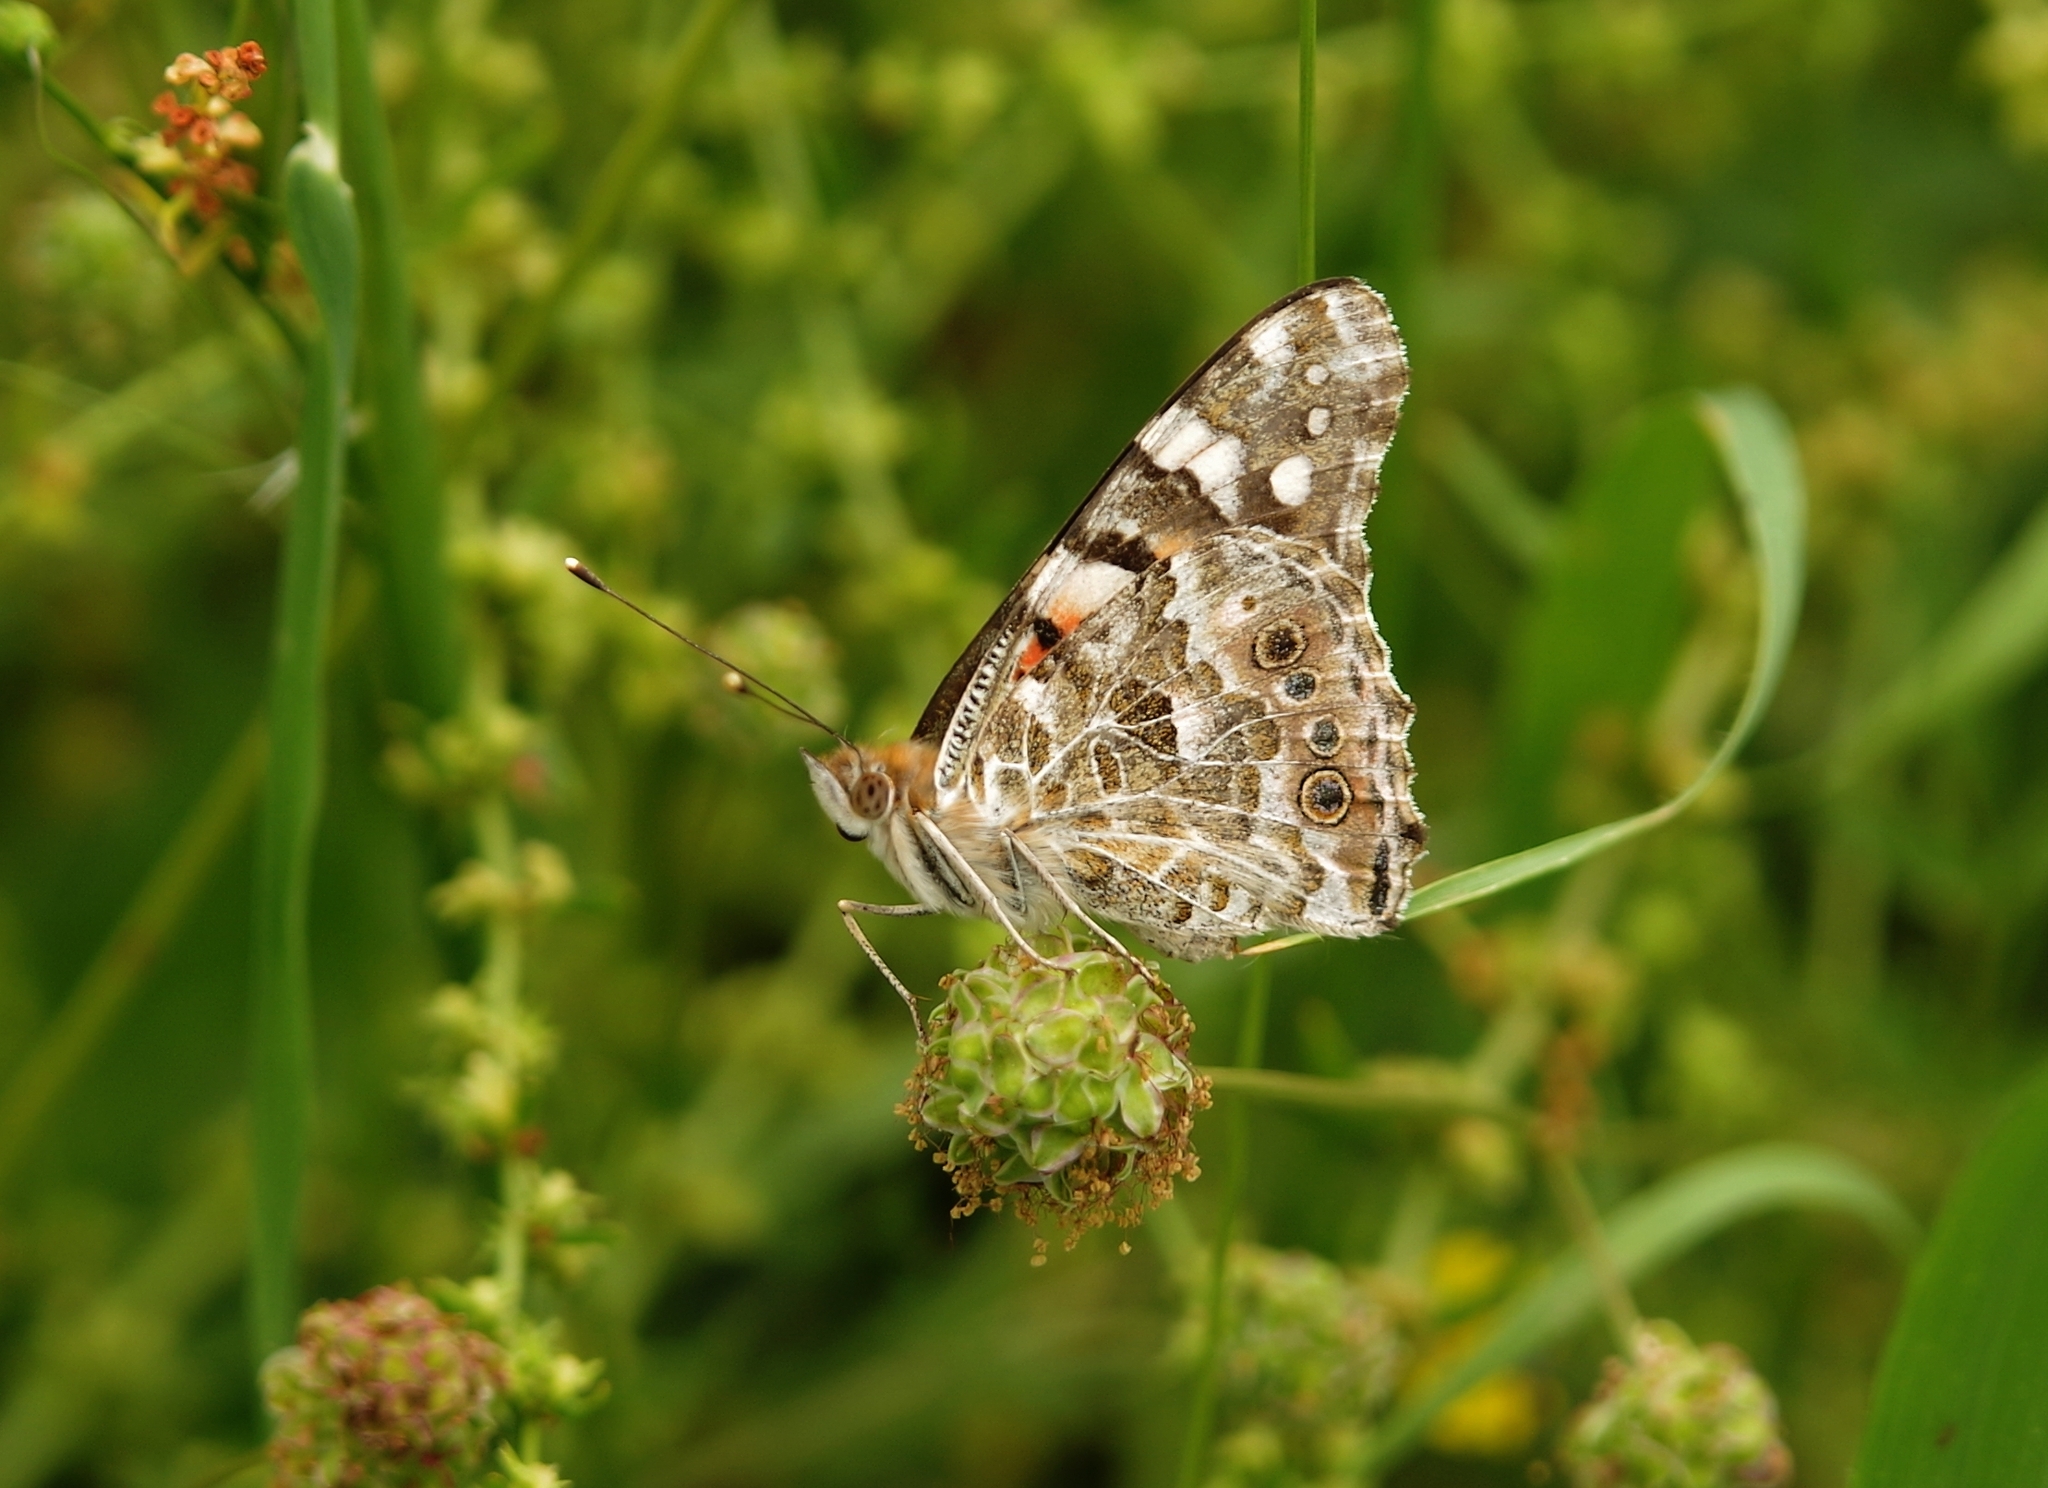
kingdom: Animalia
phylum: Arthropoda
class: Insecta
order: Lepidoptera
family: Nymphalidae
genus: Vanessa
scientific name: Vanessa cardui
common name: Painted lady
